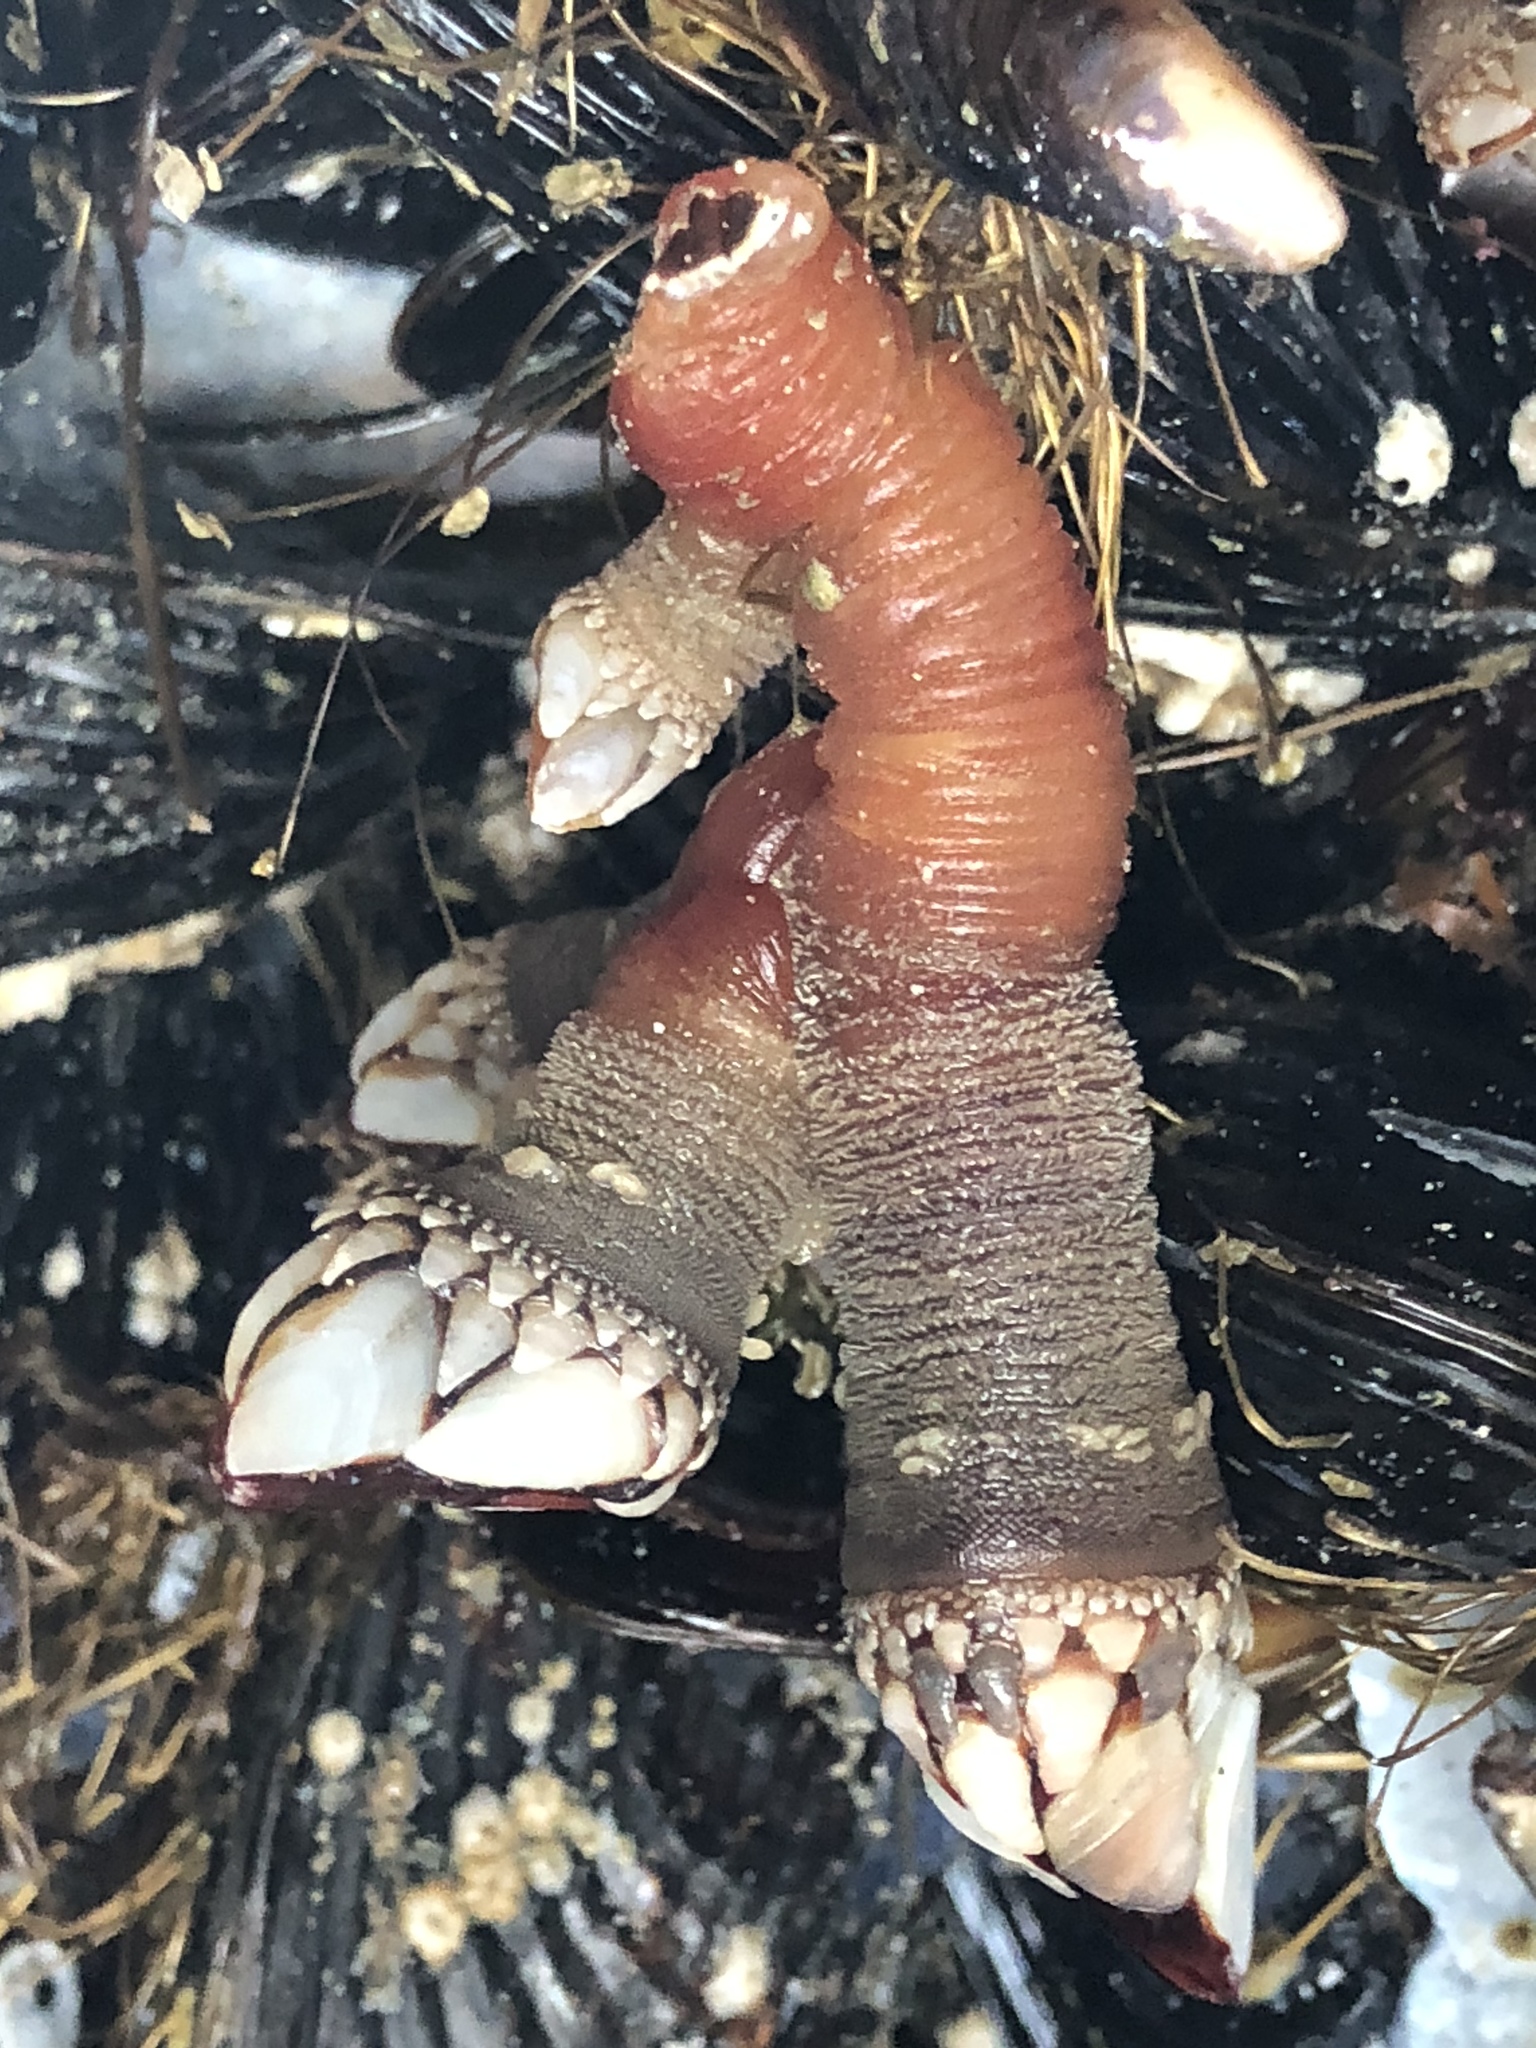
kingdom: Animalia
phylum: Arthropoda
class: Maxillopoda
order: Pedunculata
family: Pollicipedidae
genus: Pollicipes
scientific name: Pollicipes polymerus
